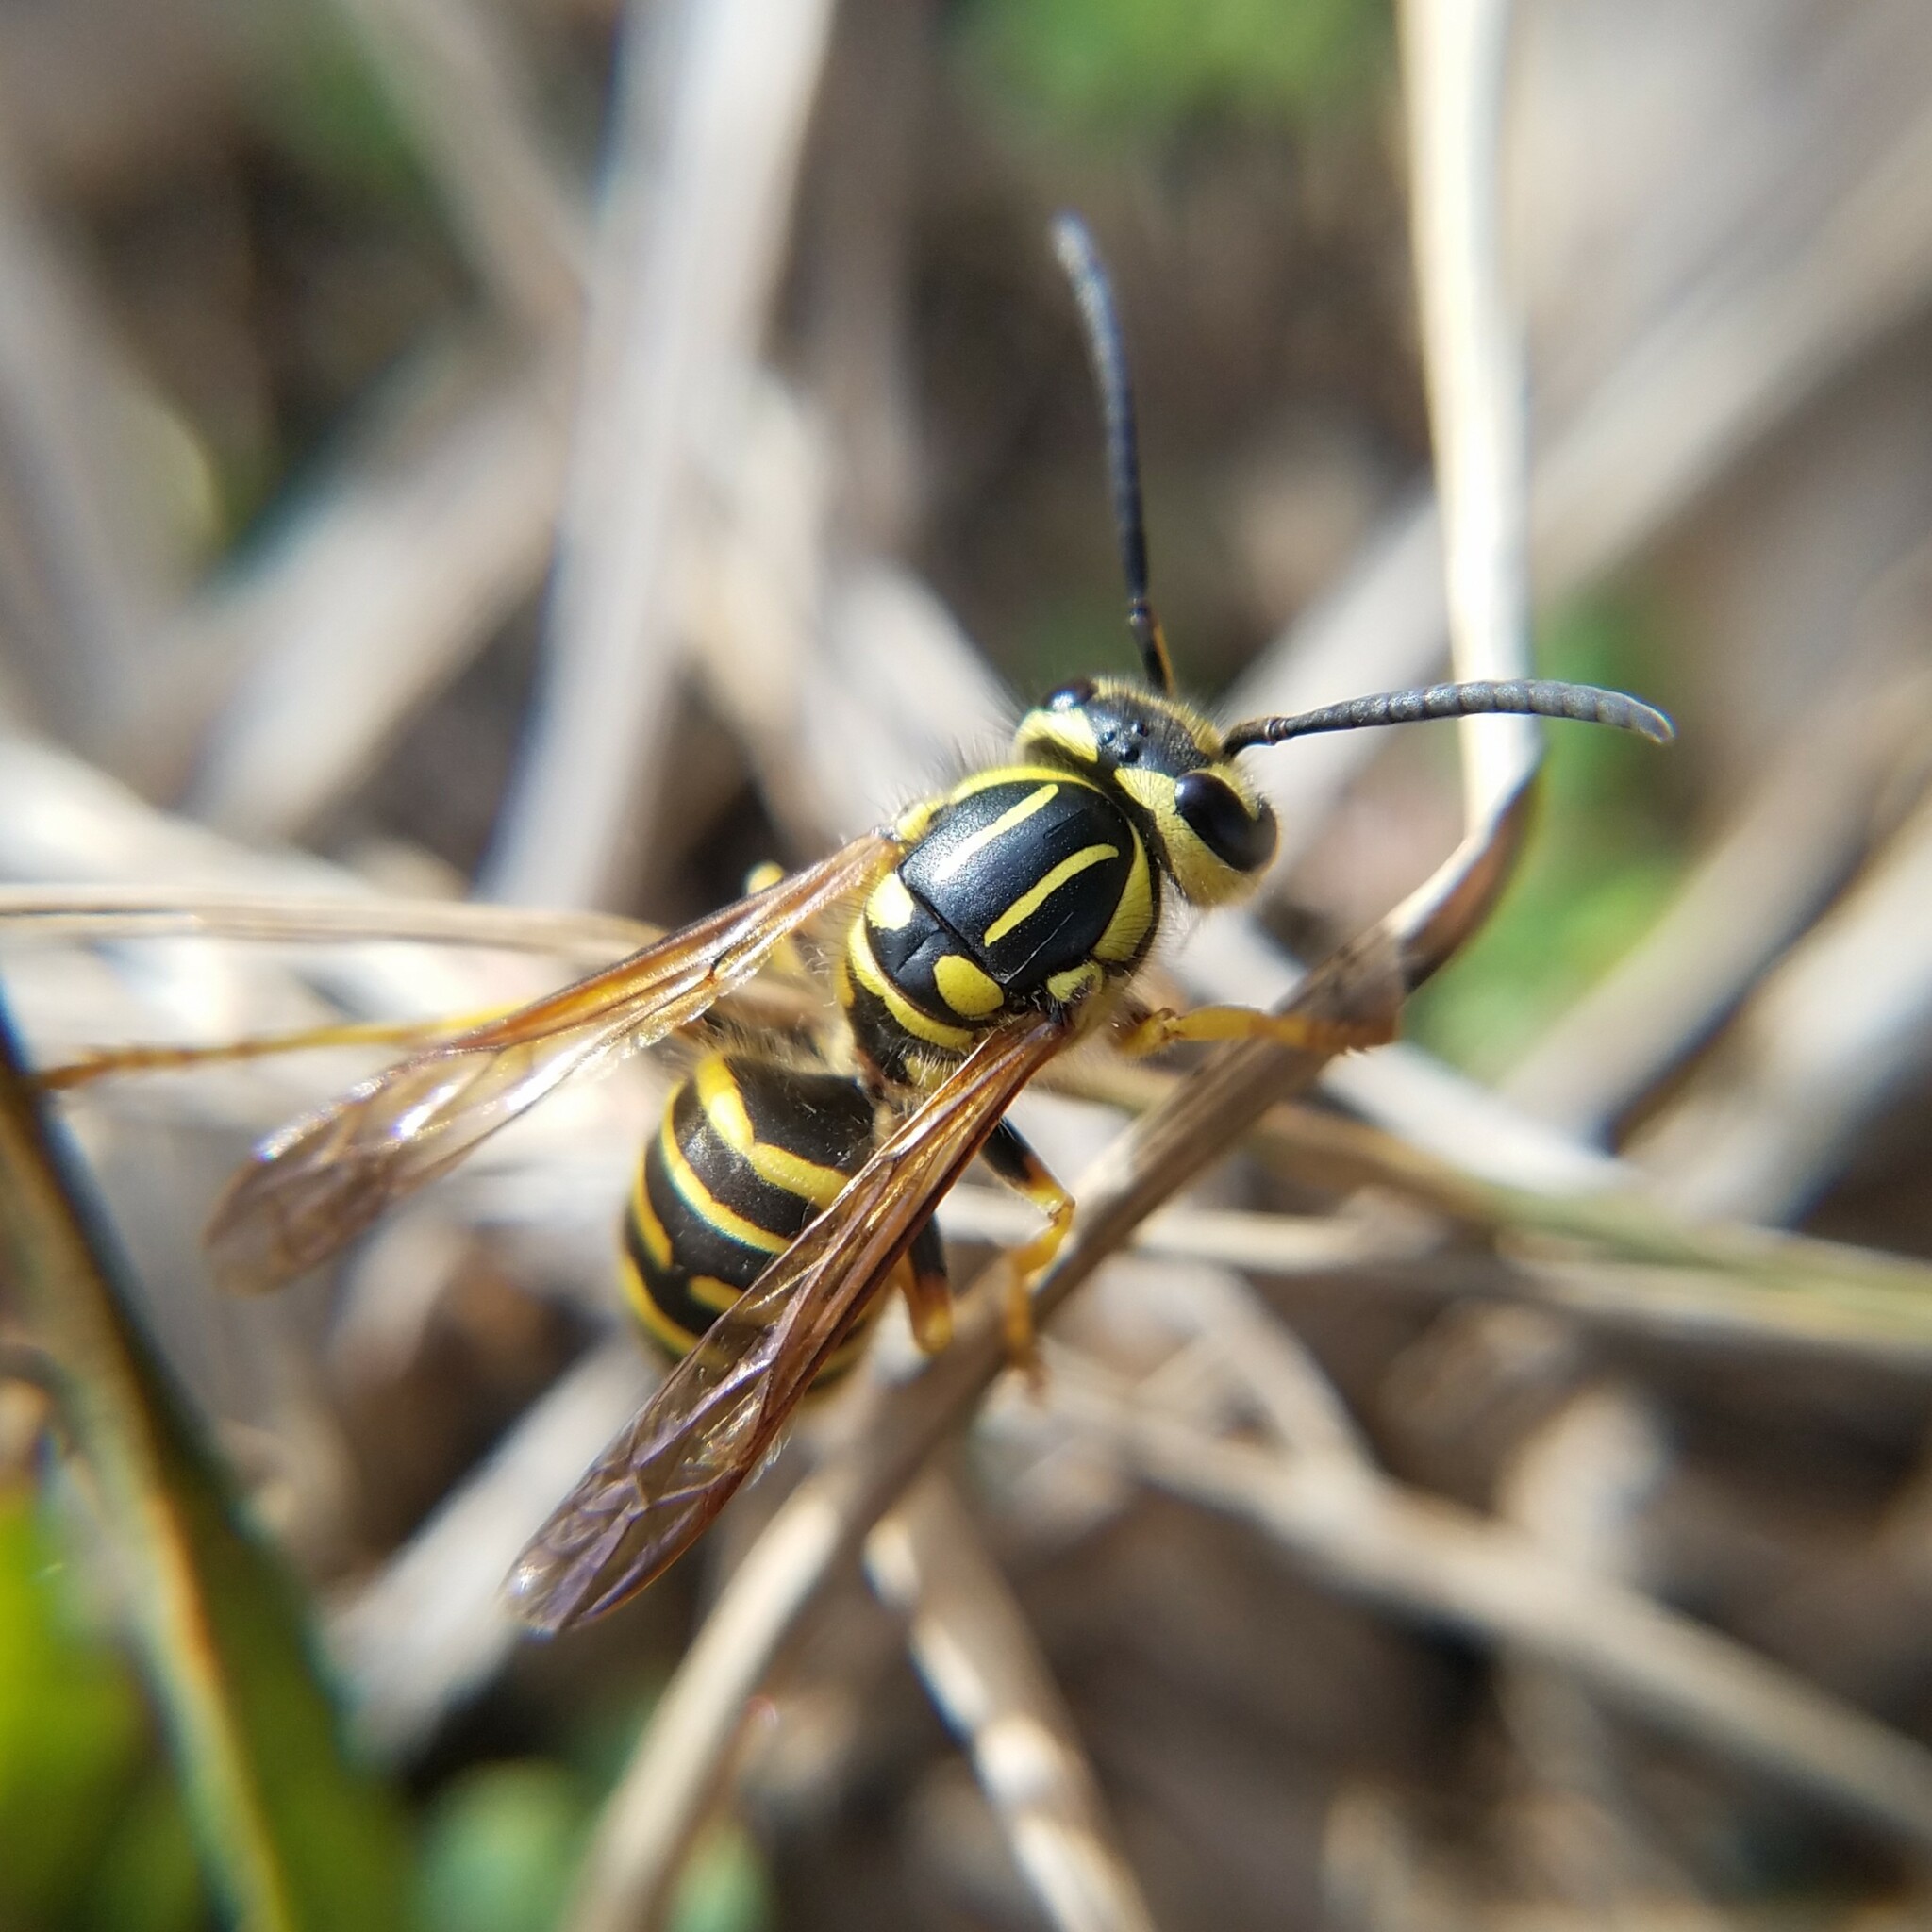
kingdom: Animalia
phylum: Arthropoda
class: Insecta
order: Hymenoptera
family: Vespidae
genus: Vespula
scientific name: Vespula squamosa
